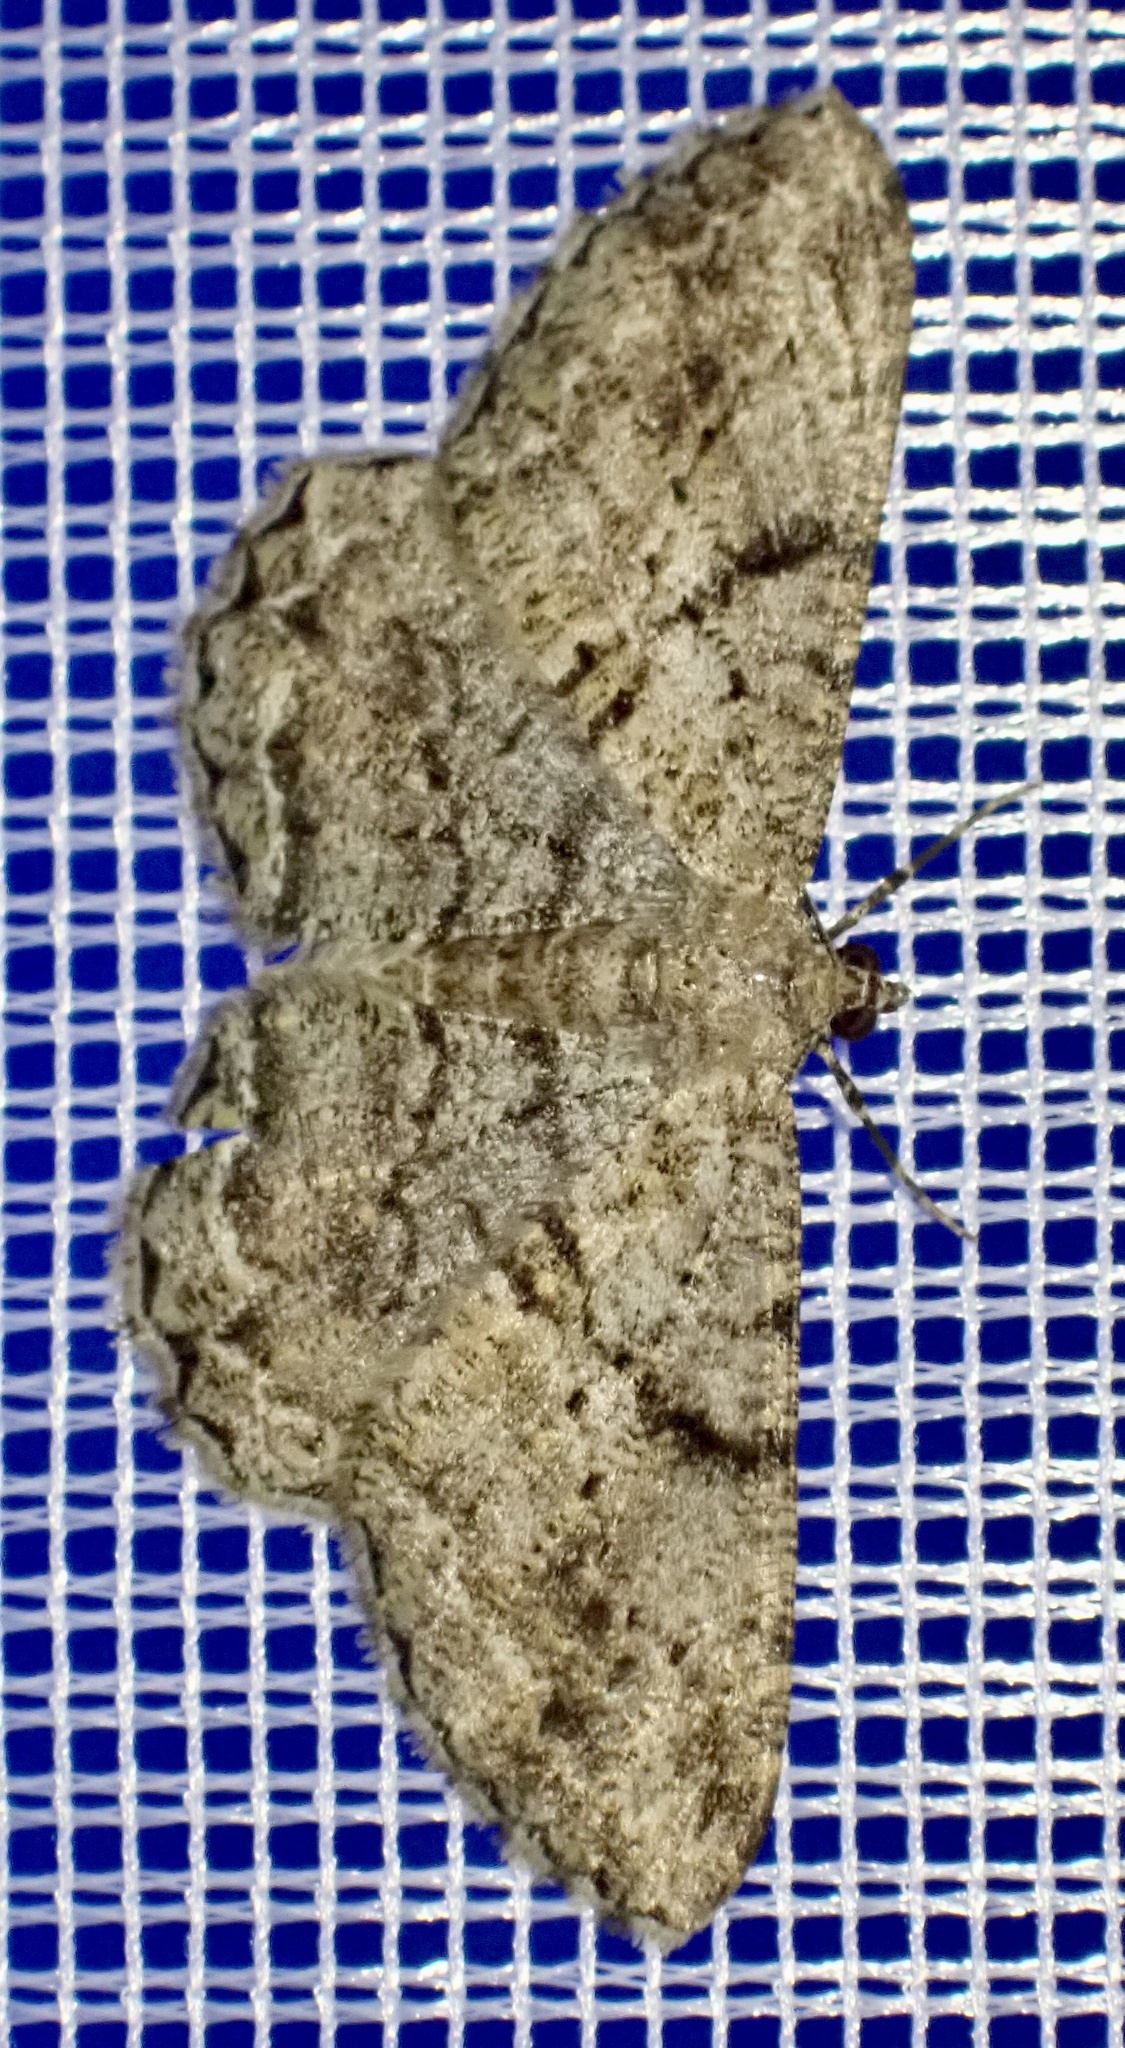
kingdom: Animalia
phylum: Arthropoda
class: Insecta
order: Lepidoptera
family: Geometridae
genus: Peribatodes
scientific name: Peribatodes rhomboidaria
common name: Willow beauty
